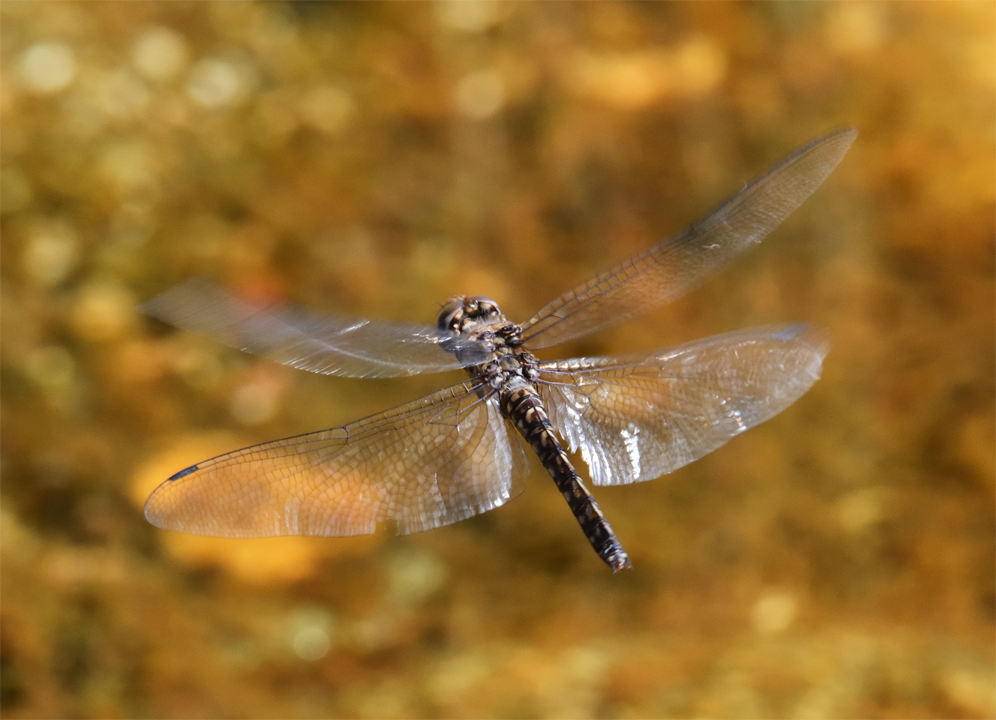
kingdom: Animalia
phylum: Arthropoda
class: Insecta
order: Odonata
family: Libellulidae
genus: Paltothemis
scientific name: Paltothemis lineatipes
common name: Red rock skimmer
